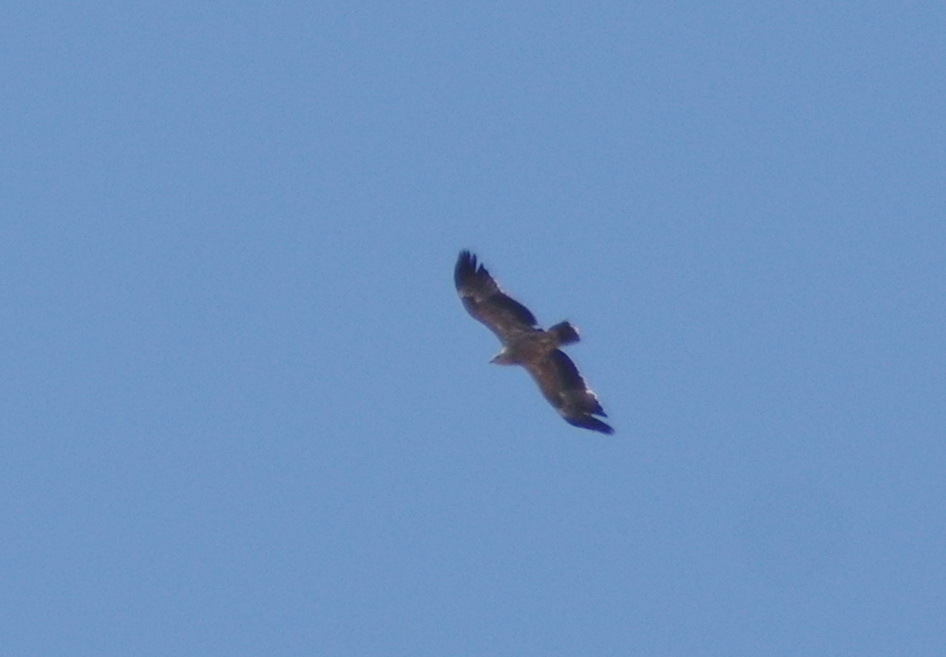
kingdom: Animalia
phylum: Chordata
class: Aves
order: Accipitriformes
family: Accipitridae
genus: Aquila
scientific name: Aquila adalberti
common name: Spanish imperial eagle
